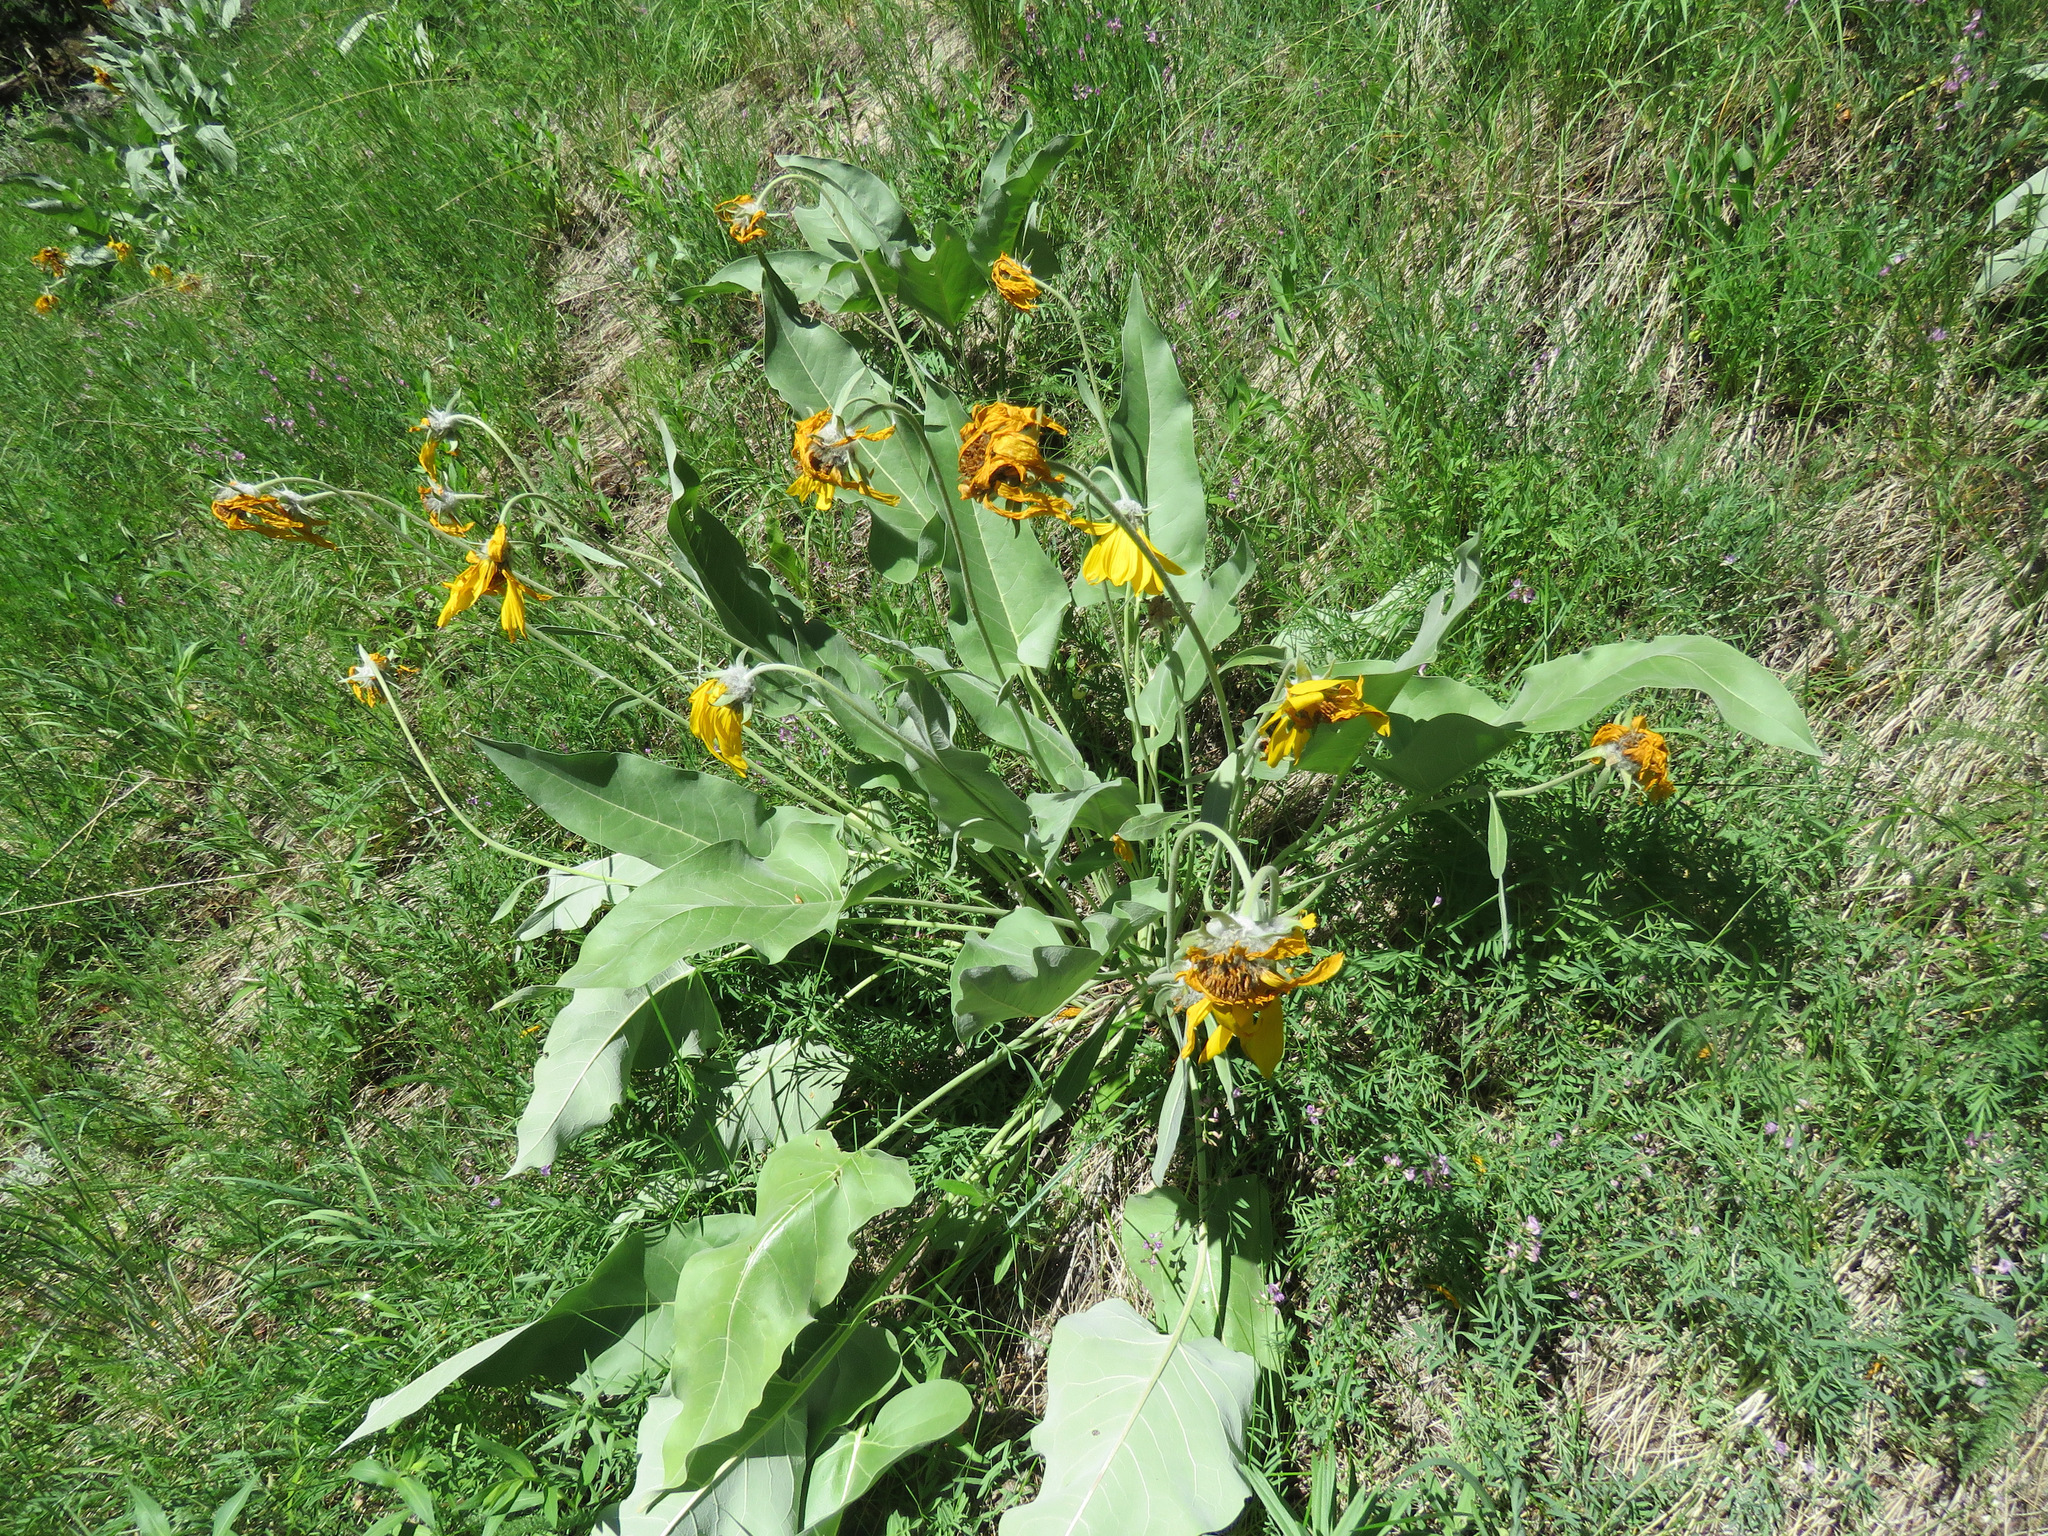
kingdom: Plantae
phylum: Tracheophyta
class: Magnoliopsida
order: Asterales
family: Asteraceae
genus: Wyethia
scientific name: Wyethia sagittata
